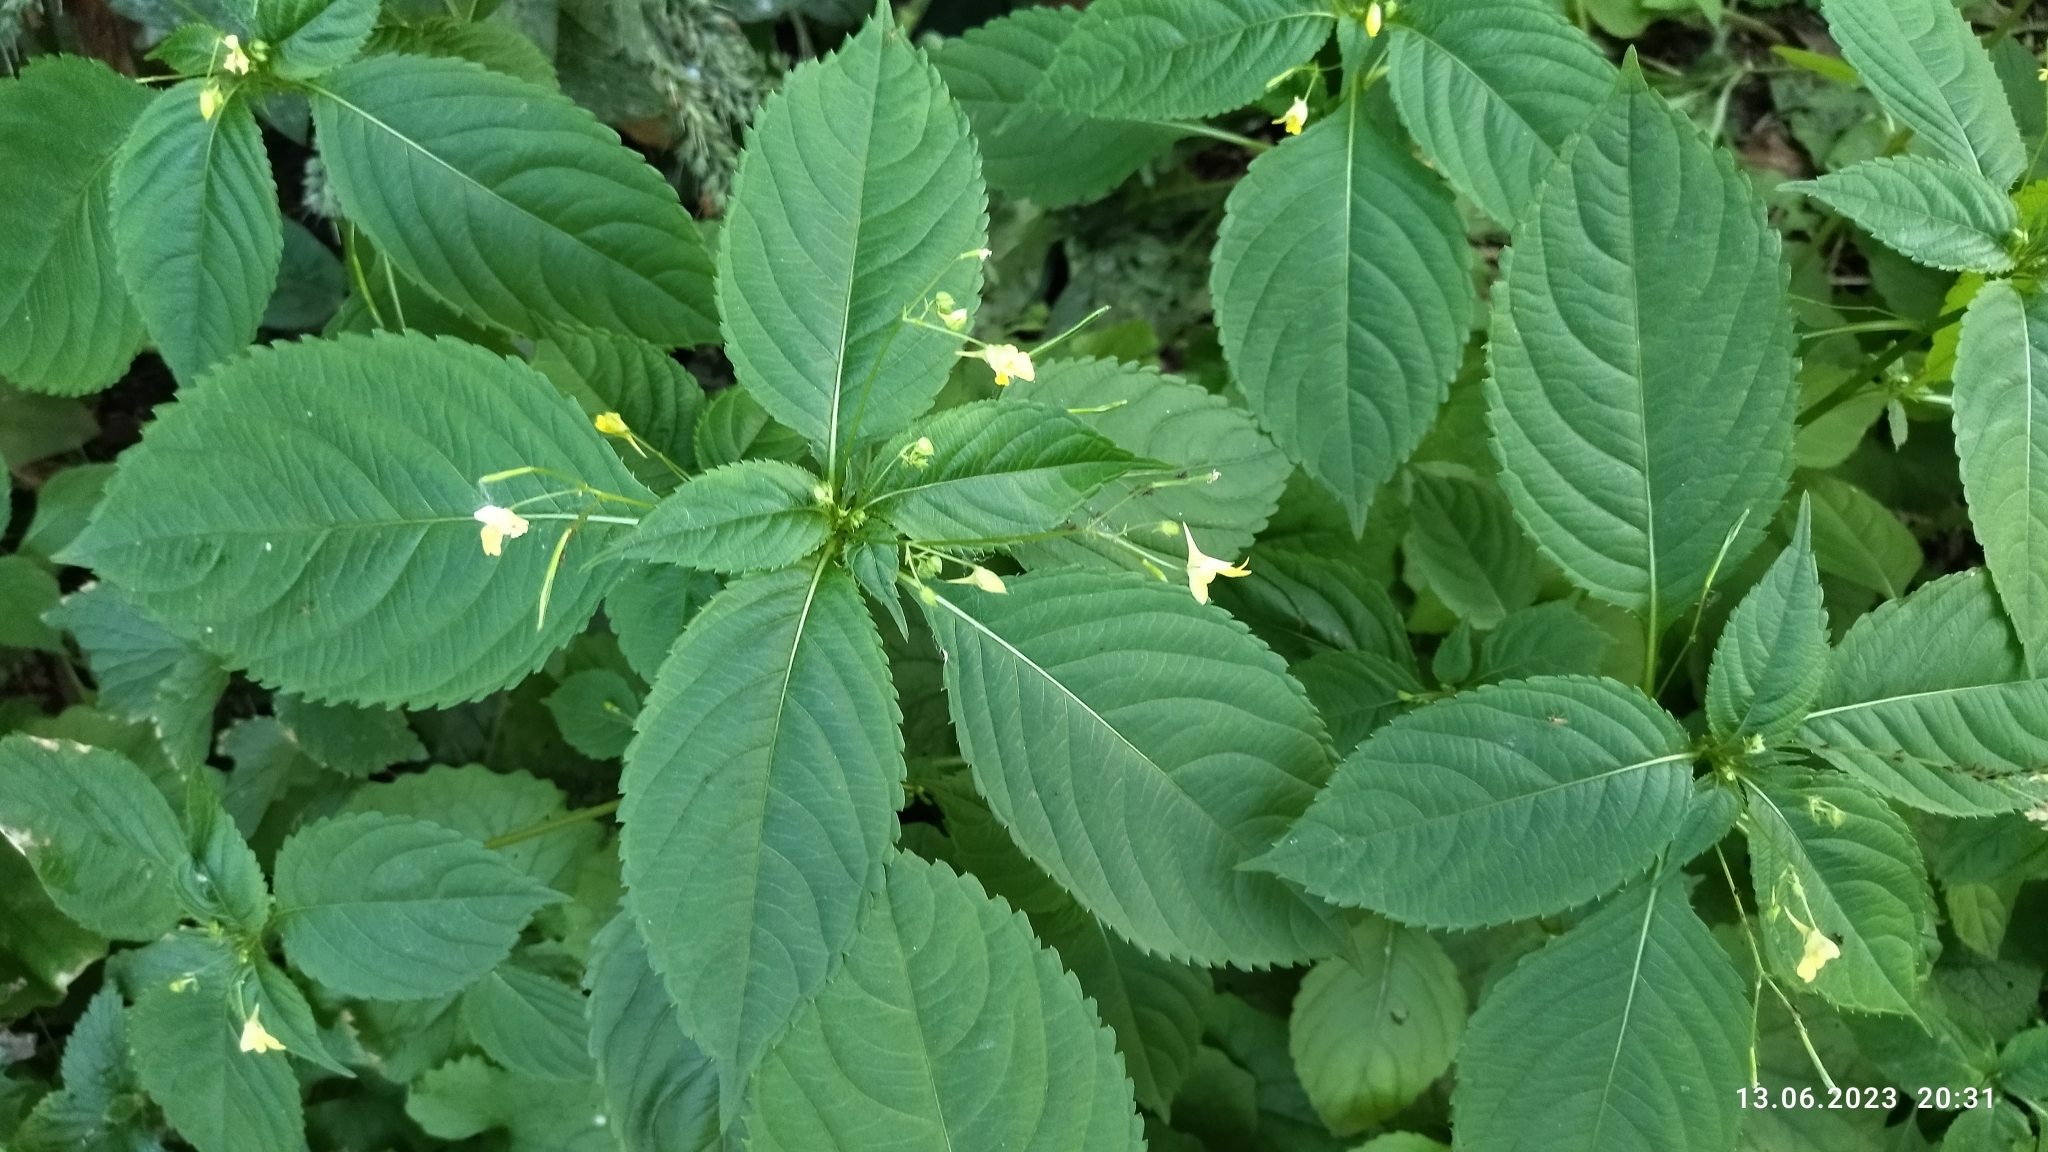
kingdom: Plantae
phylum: Tracheophyta
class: Magnoliopsida
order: Ericales
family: Balsaminaceae
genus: Impatiens
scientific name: Impatiens parviflora
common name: Small balsam
